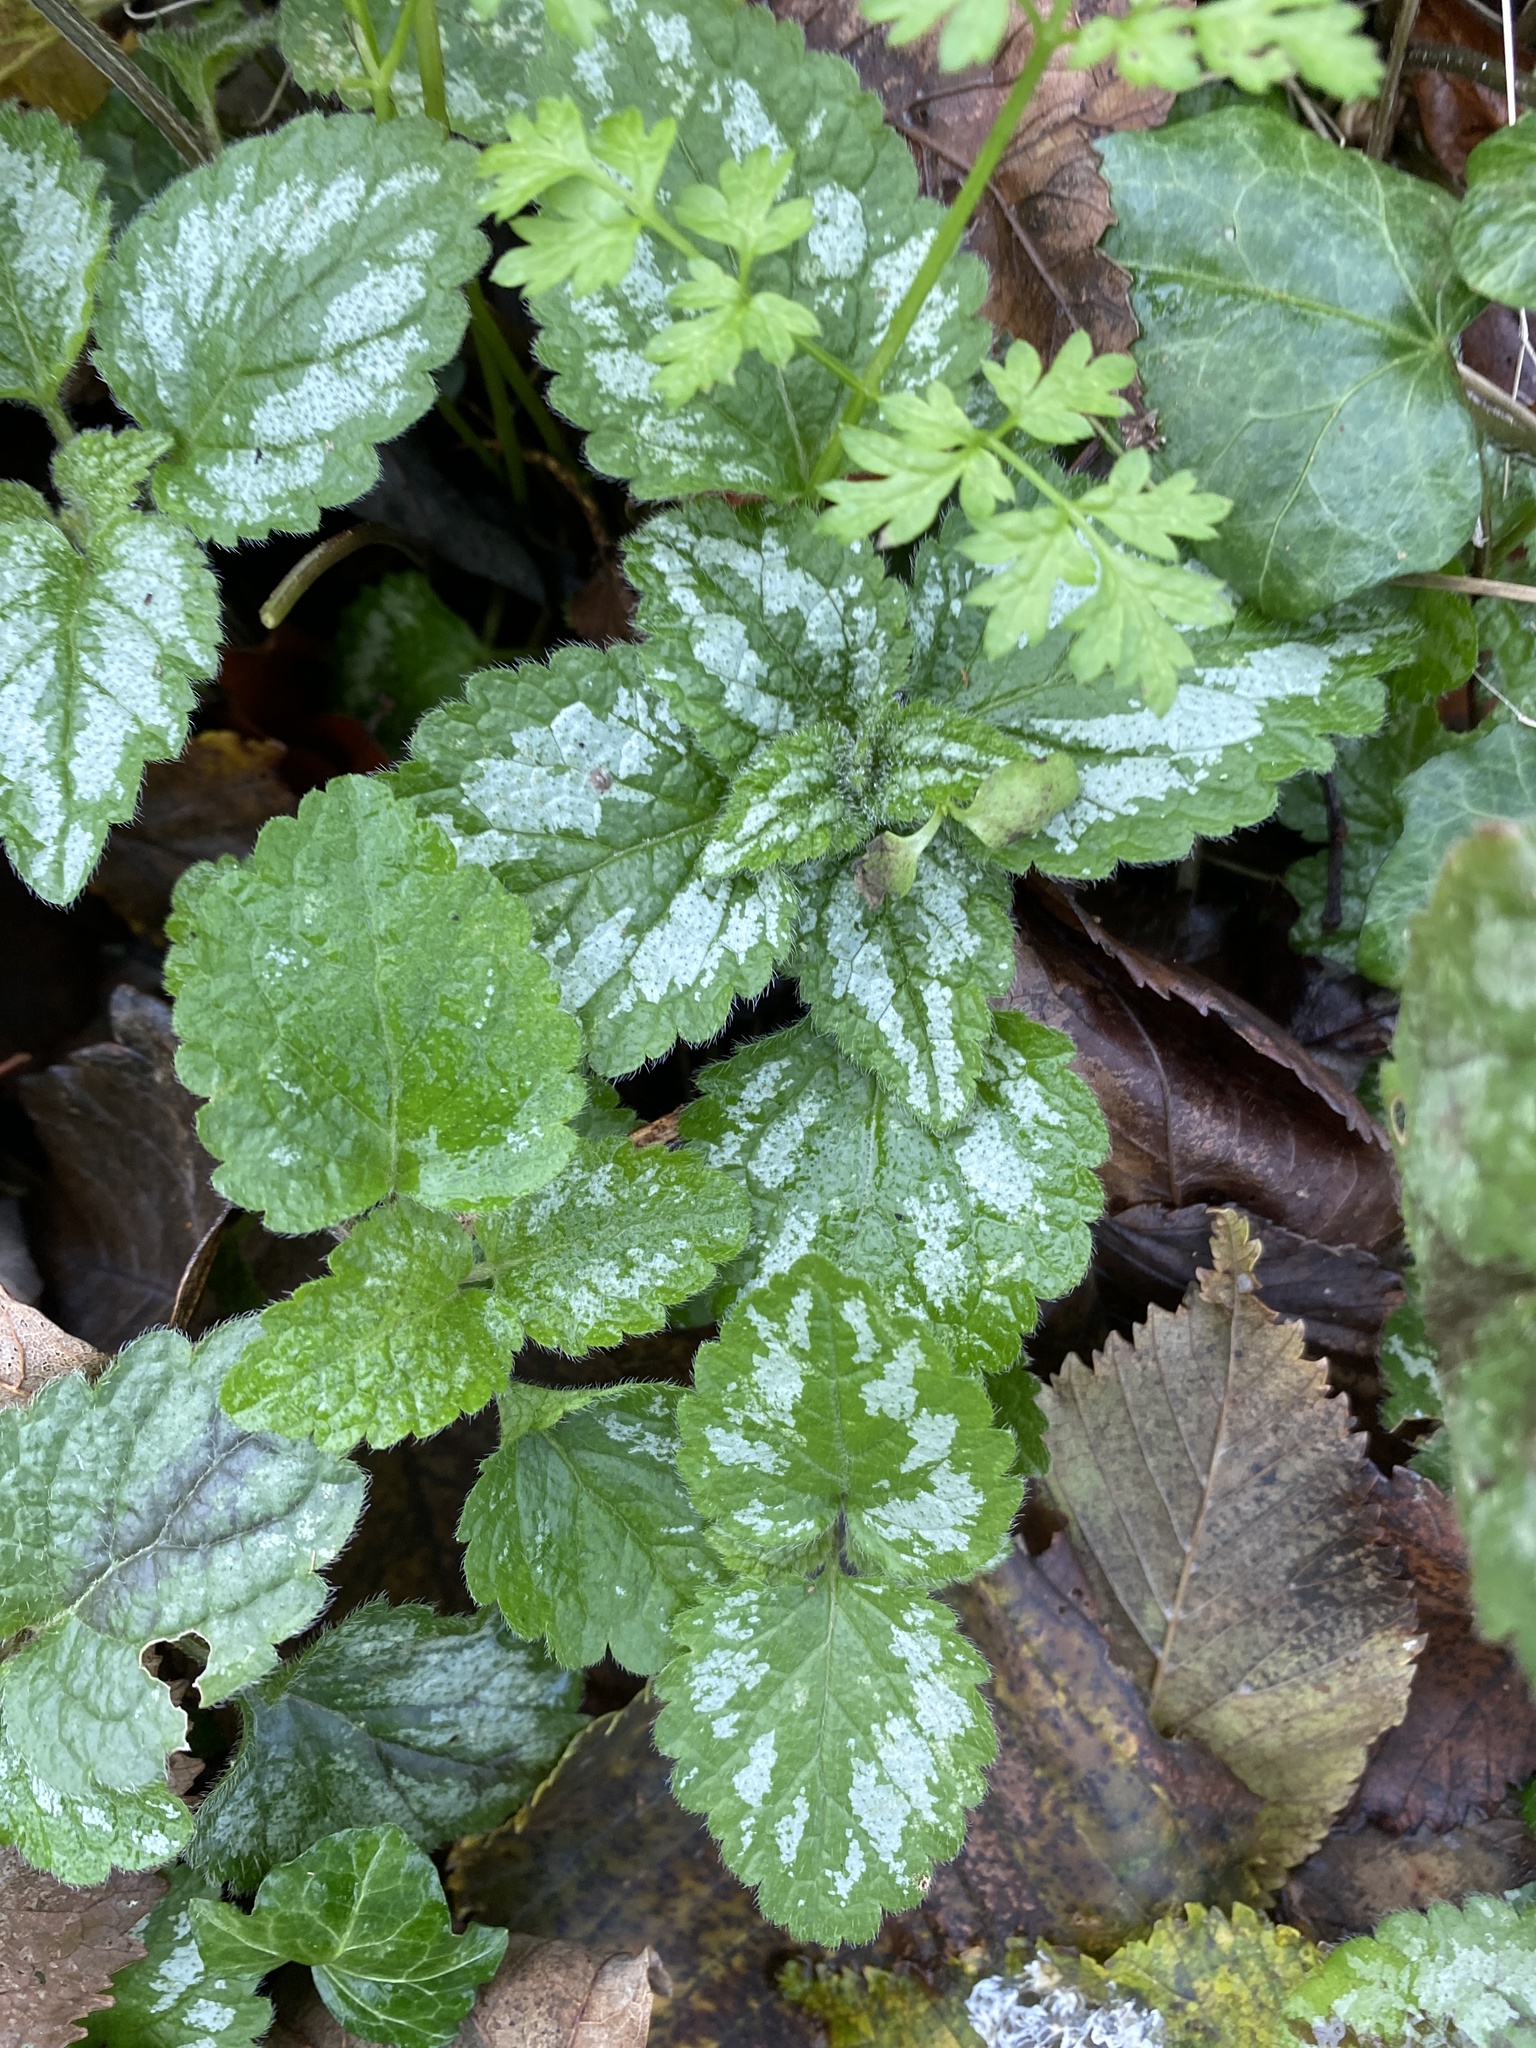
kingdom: Plantae
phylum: Tracheophyta
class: Magnoliopsida
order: Lamiales
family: Lamiaceae
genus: Lamium
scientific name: Lamium galeobdolon
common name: Yellow archangel
